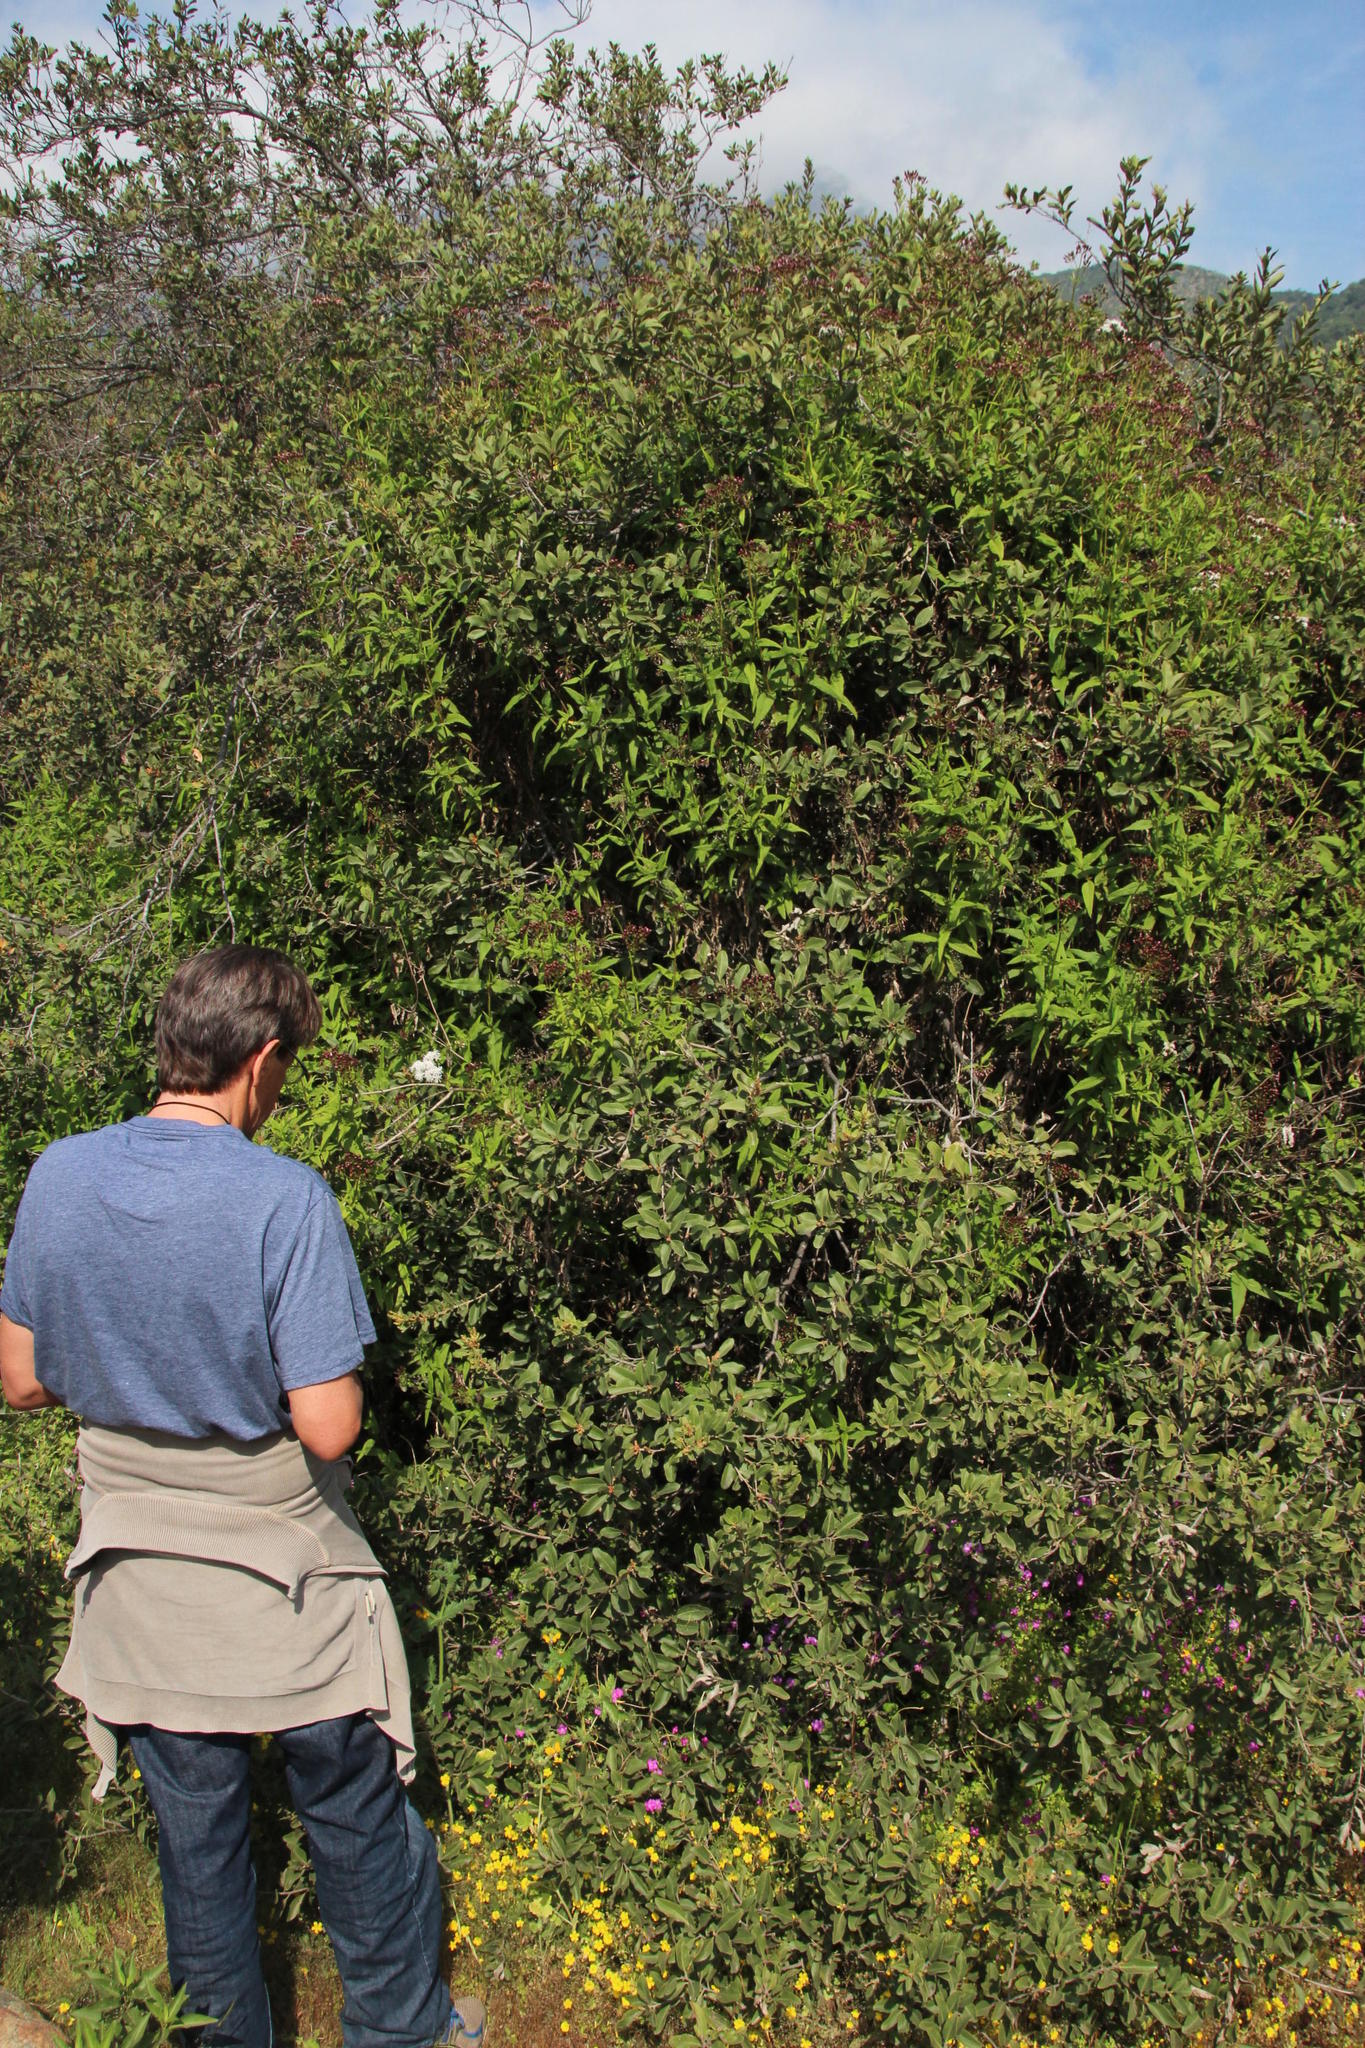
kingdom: Plantae
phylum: Tracheophyta
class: Magnoliopsida
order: Sapindales
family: Anacardiaceae
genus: Schinus
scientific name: Schinus polygama
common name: Hardee peppertree
